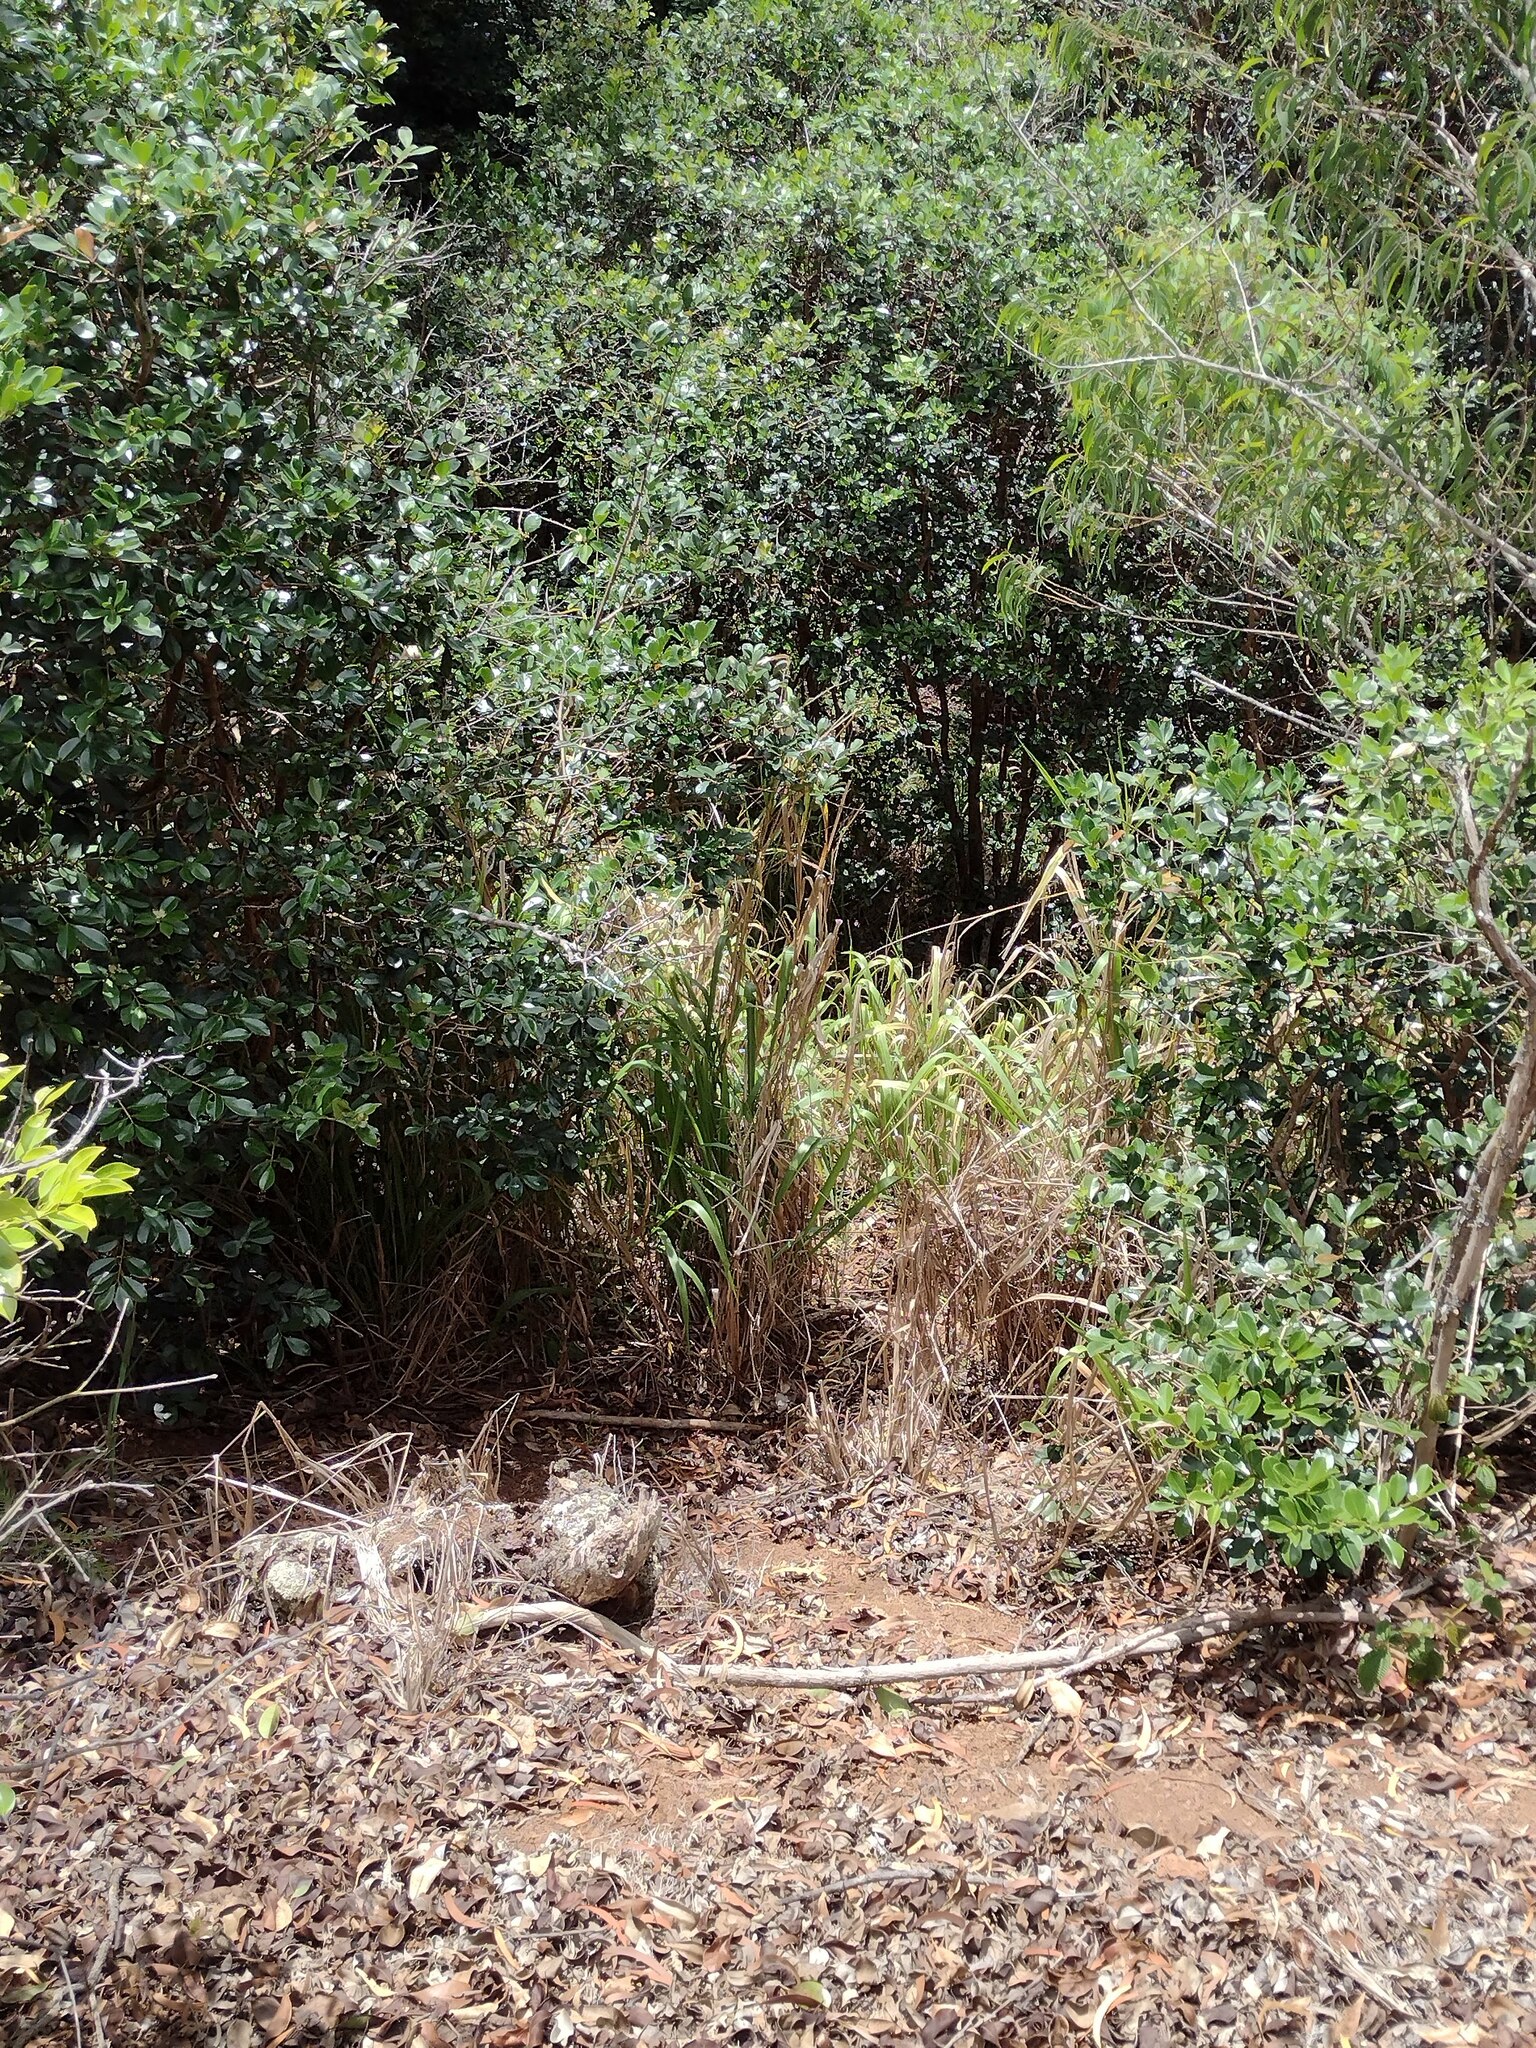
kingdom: Plantae
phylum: Tracheophyta
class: Liliopsida
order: Poales
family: Poaceae
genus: Megathyrsus
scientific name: Megathyrsus maximus
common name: Guineagrass
